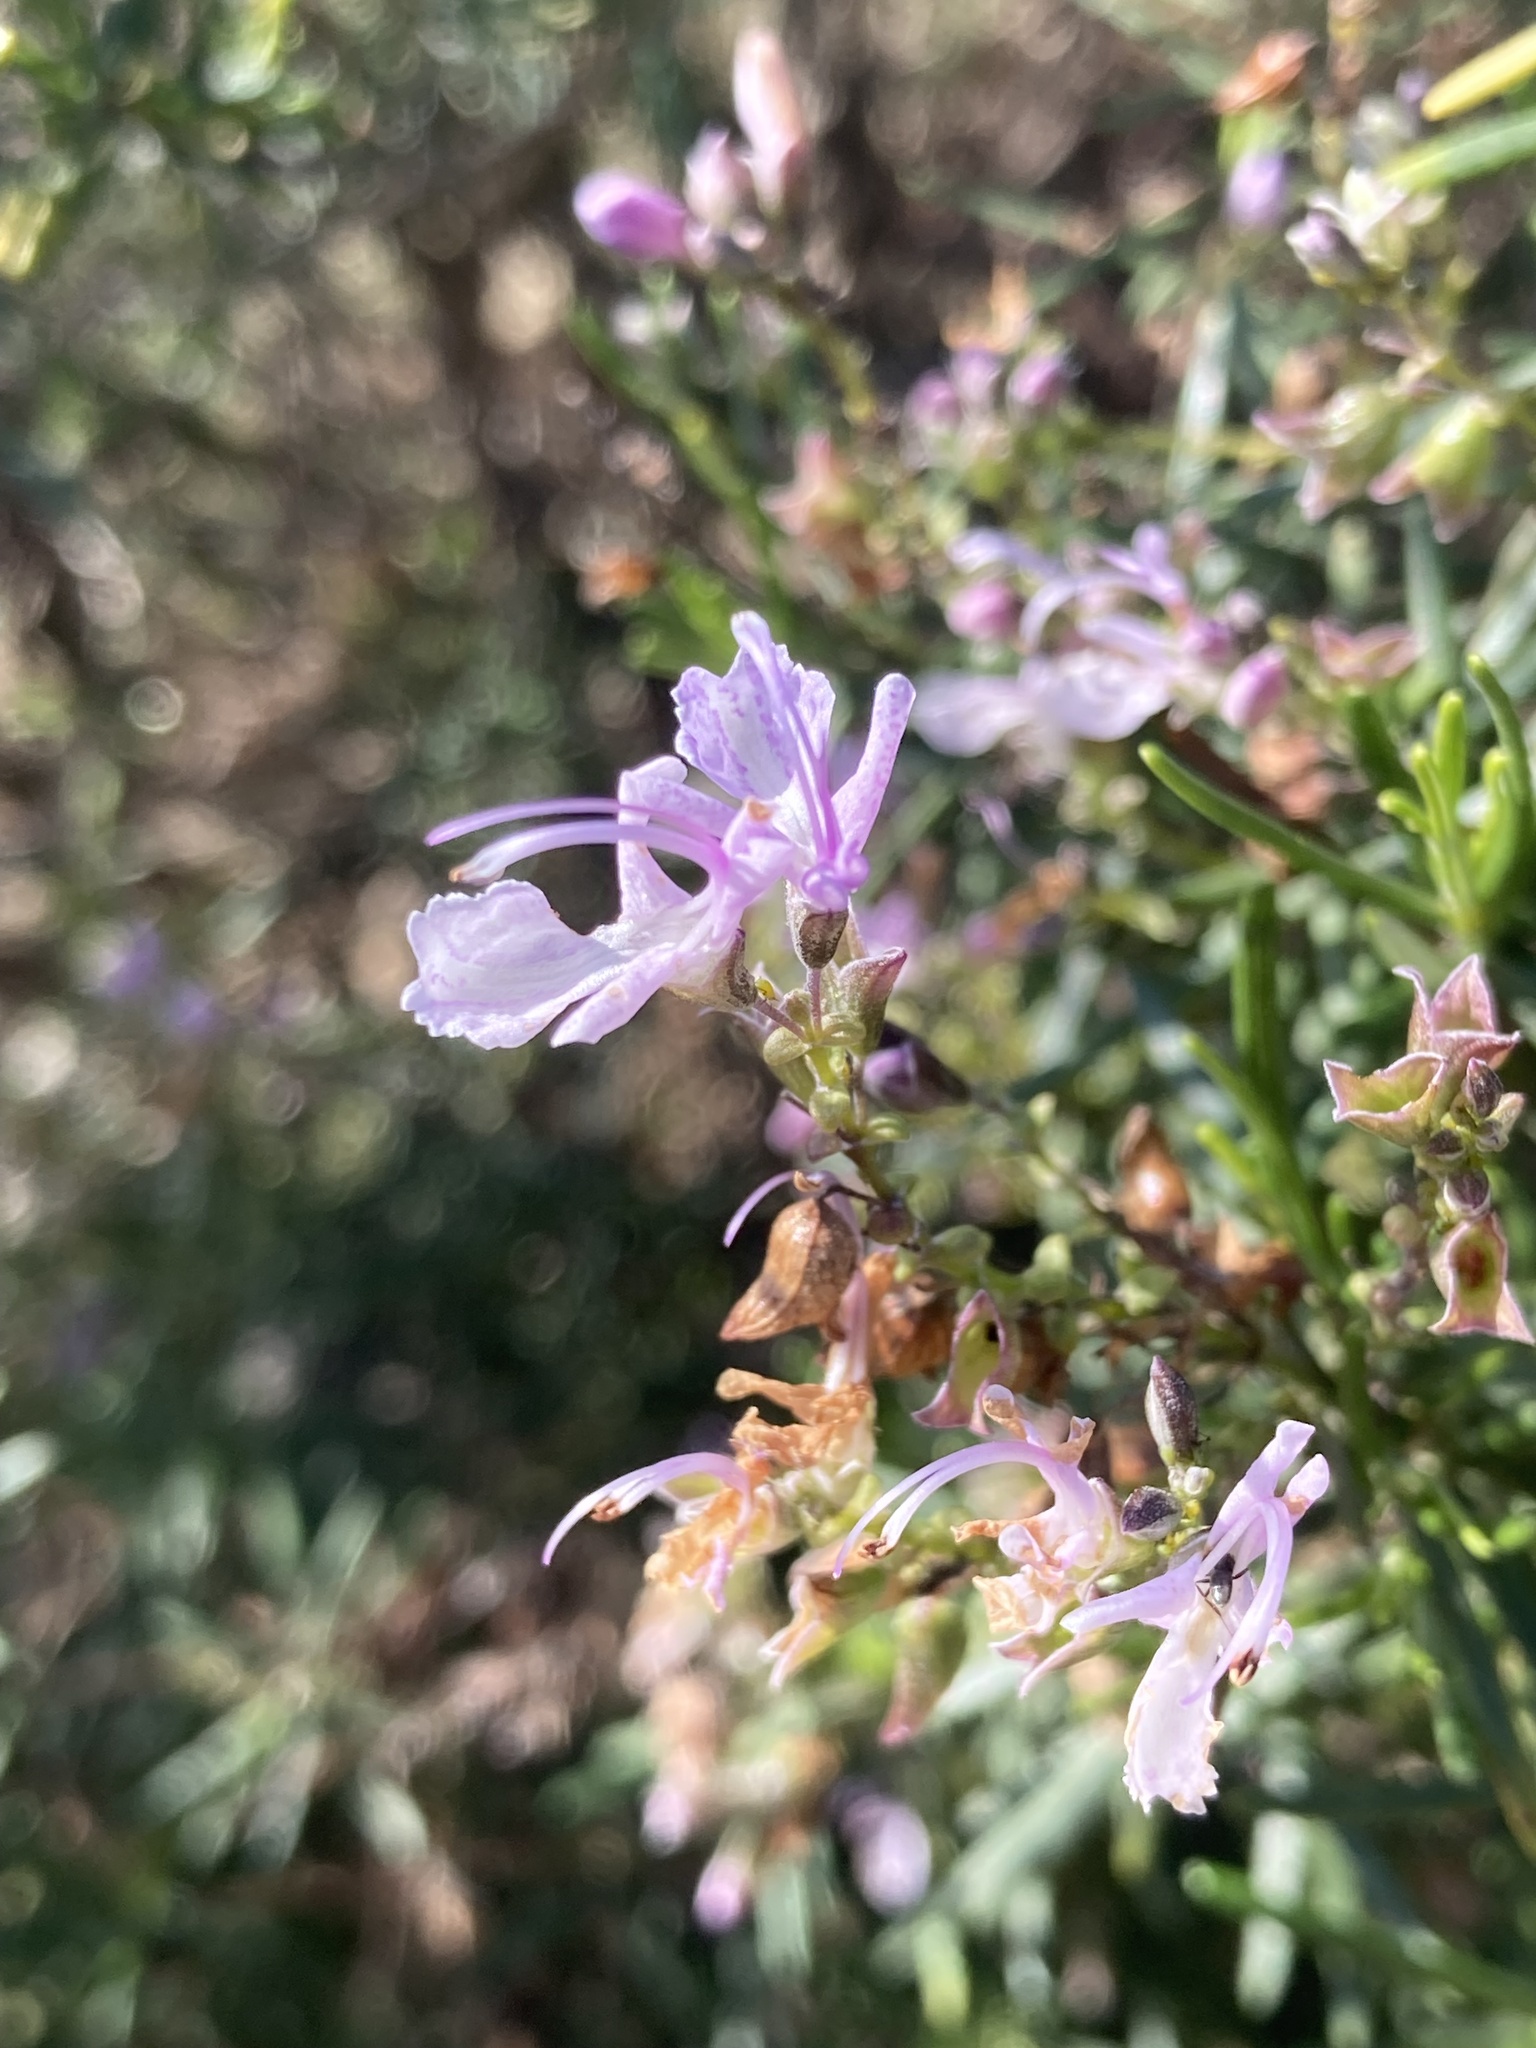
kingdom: Plantae
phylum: Tracheophyta
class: Magnoliopsida
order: Lamiales
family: Lamiaceae
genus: Salvia
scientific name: Salvia rosmarinus
